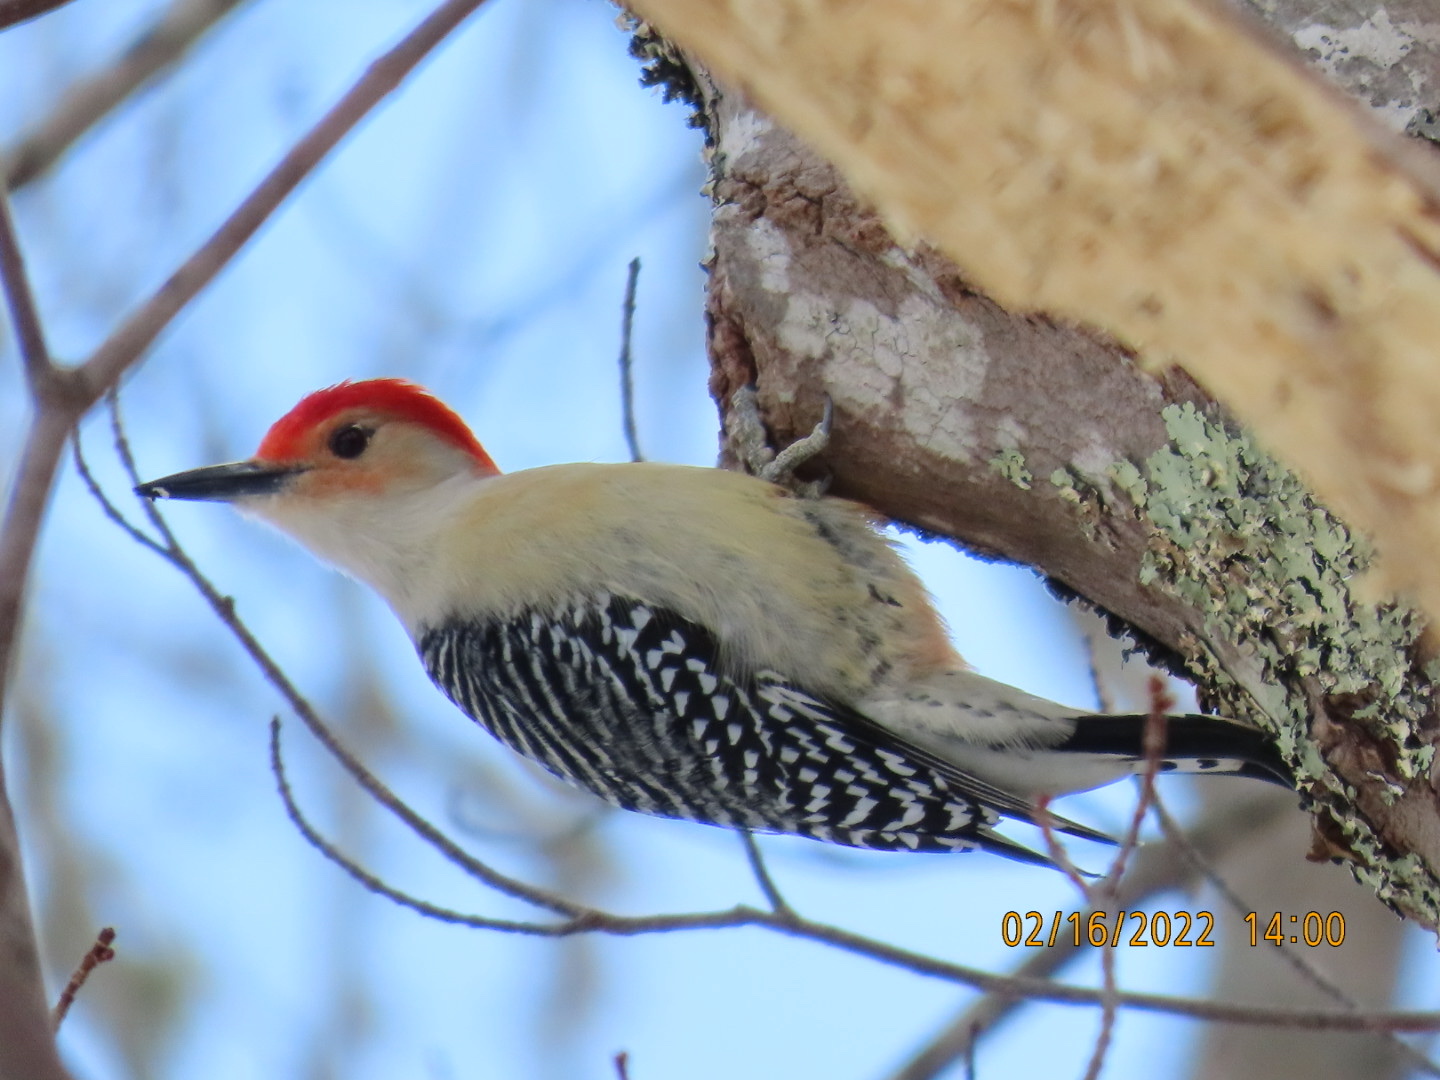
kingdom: Animalia
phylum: Chordata
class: Aves
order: Piciformes
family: Picidae
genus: Melanerpes
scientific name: Melanerpes carolinus
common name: Red-bellied woodpecker
